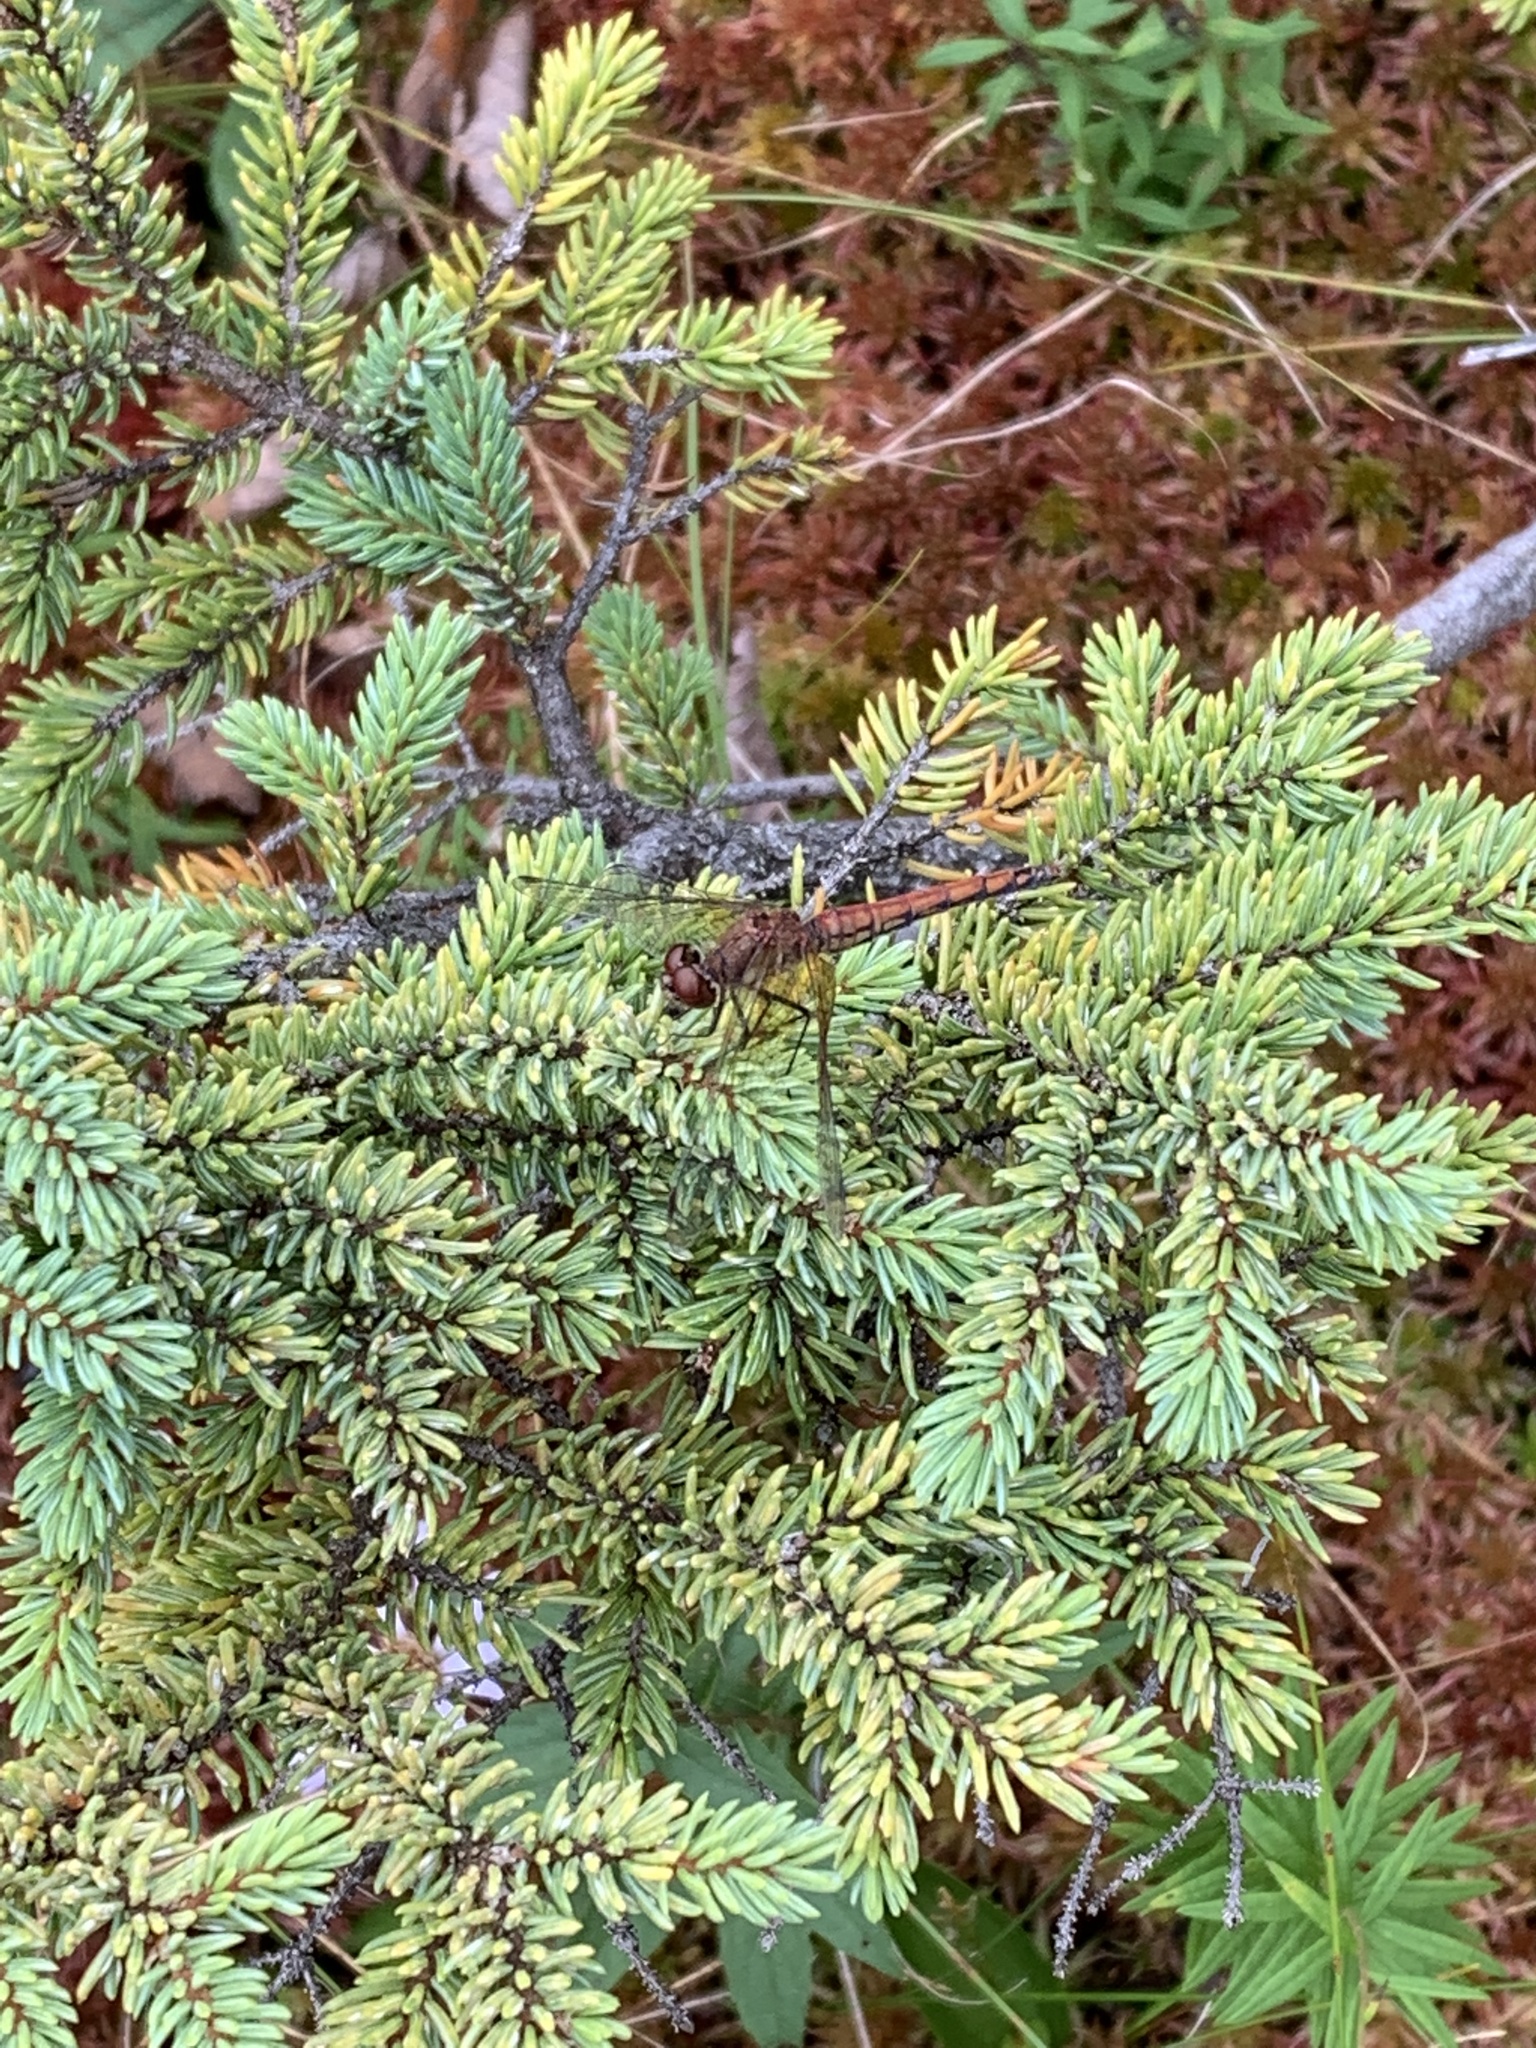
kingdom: Animalia
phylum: Arthropoda
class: Insecta
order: Odonata
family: Libellulidae
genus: Sympetrum
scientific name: Sympetrum semicinctum
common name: Band-winged meadowhawk
